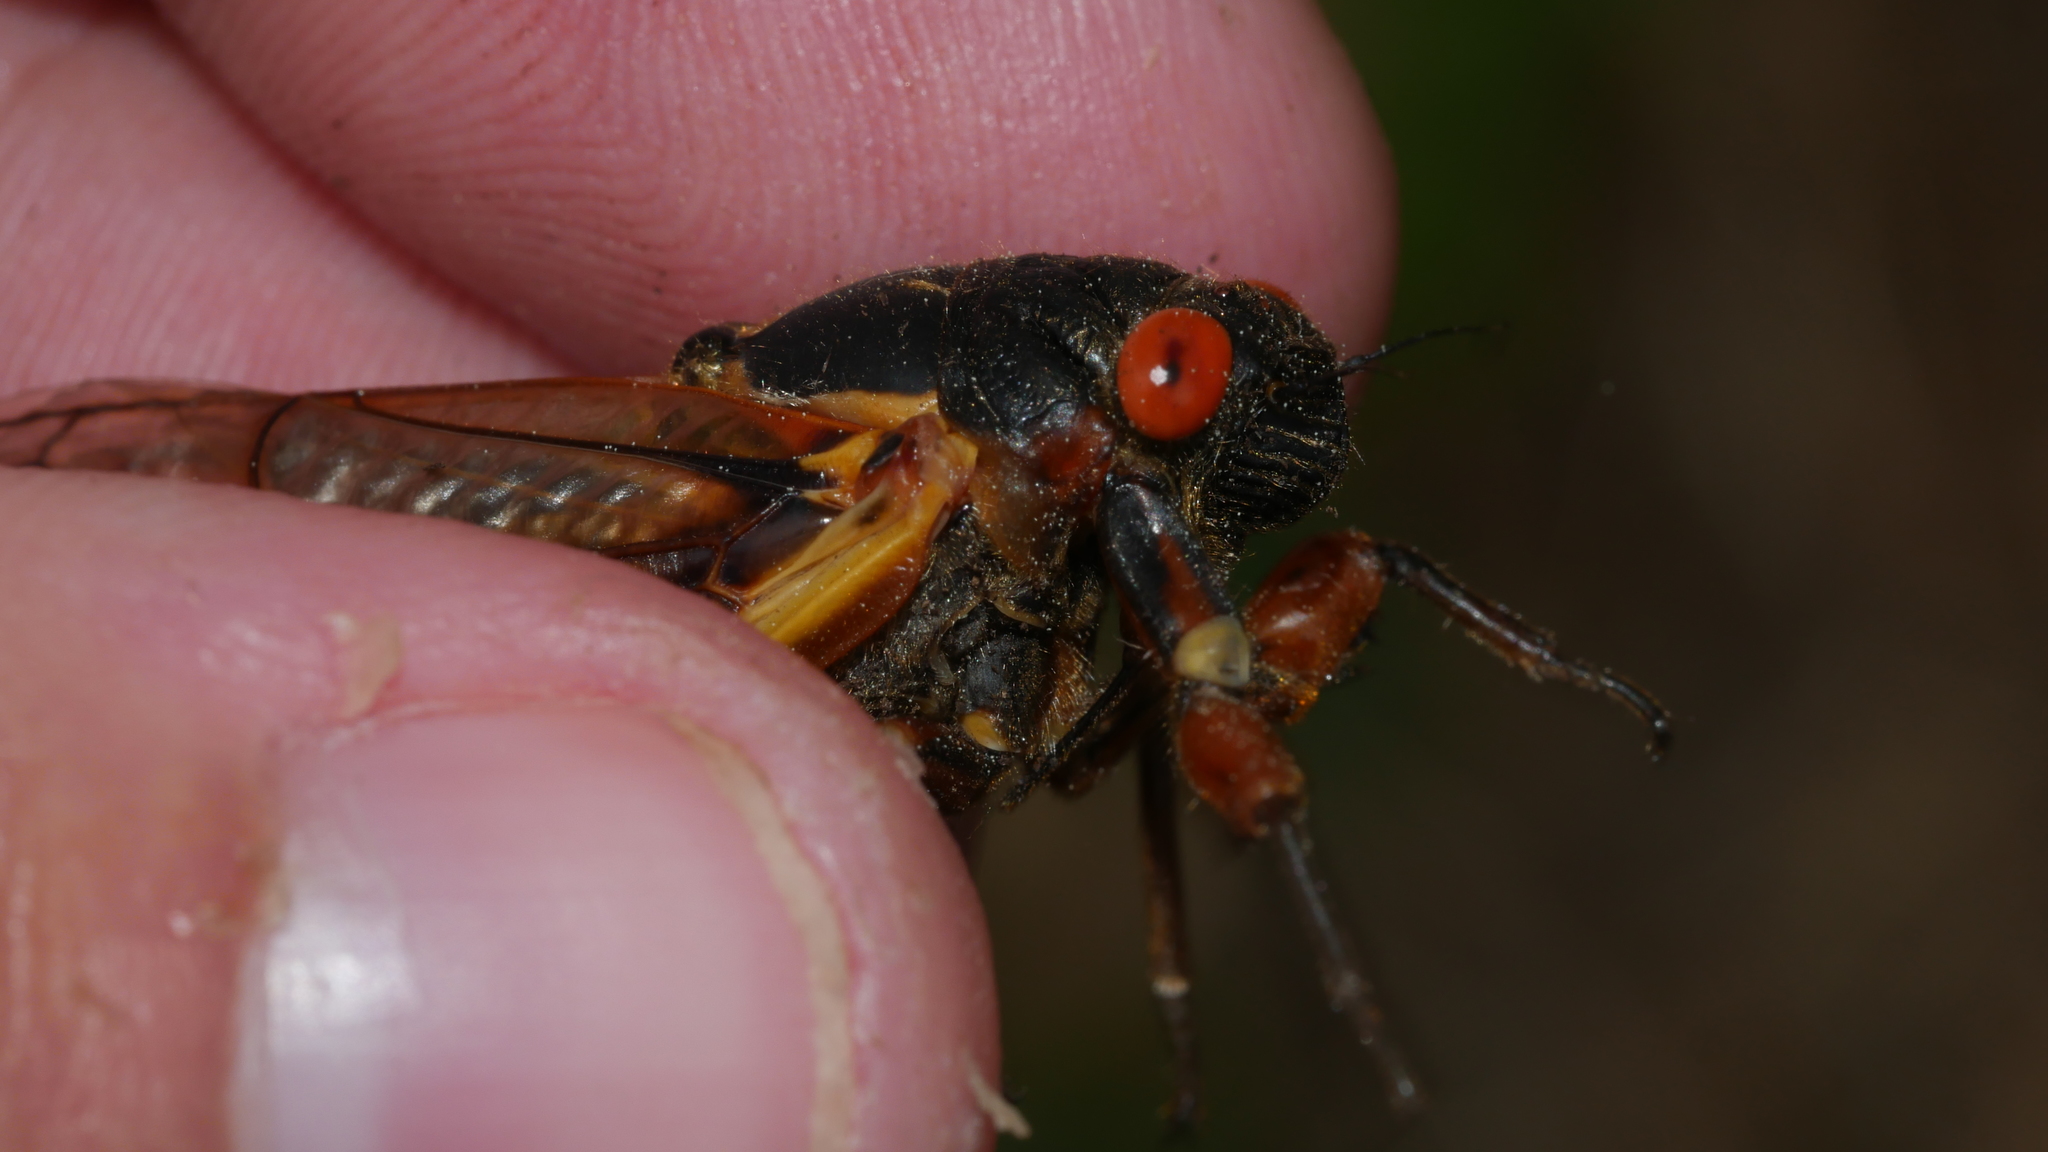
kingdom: Animalia
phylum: Arthropoda
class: Insecta
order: Hemiptera
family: Cicadidae
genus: Magicicada
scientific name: Magicicada septendecim
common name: Periodical cicada
